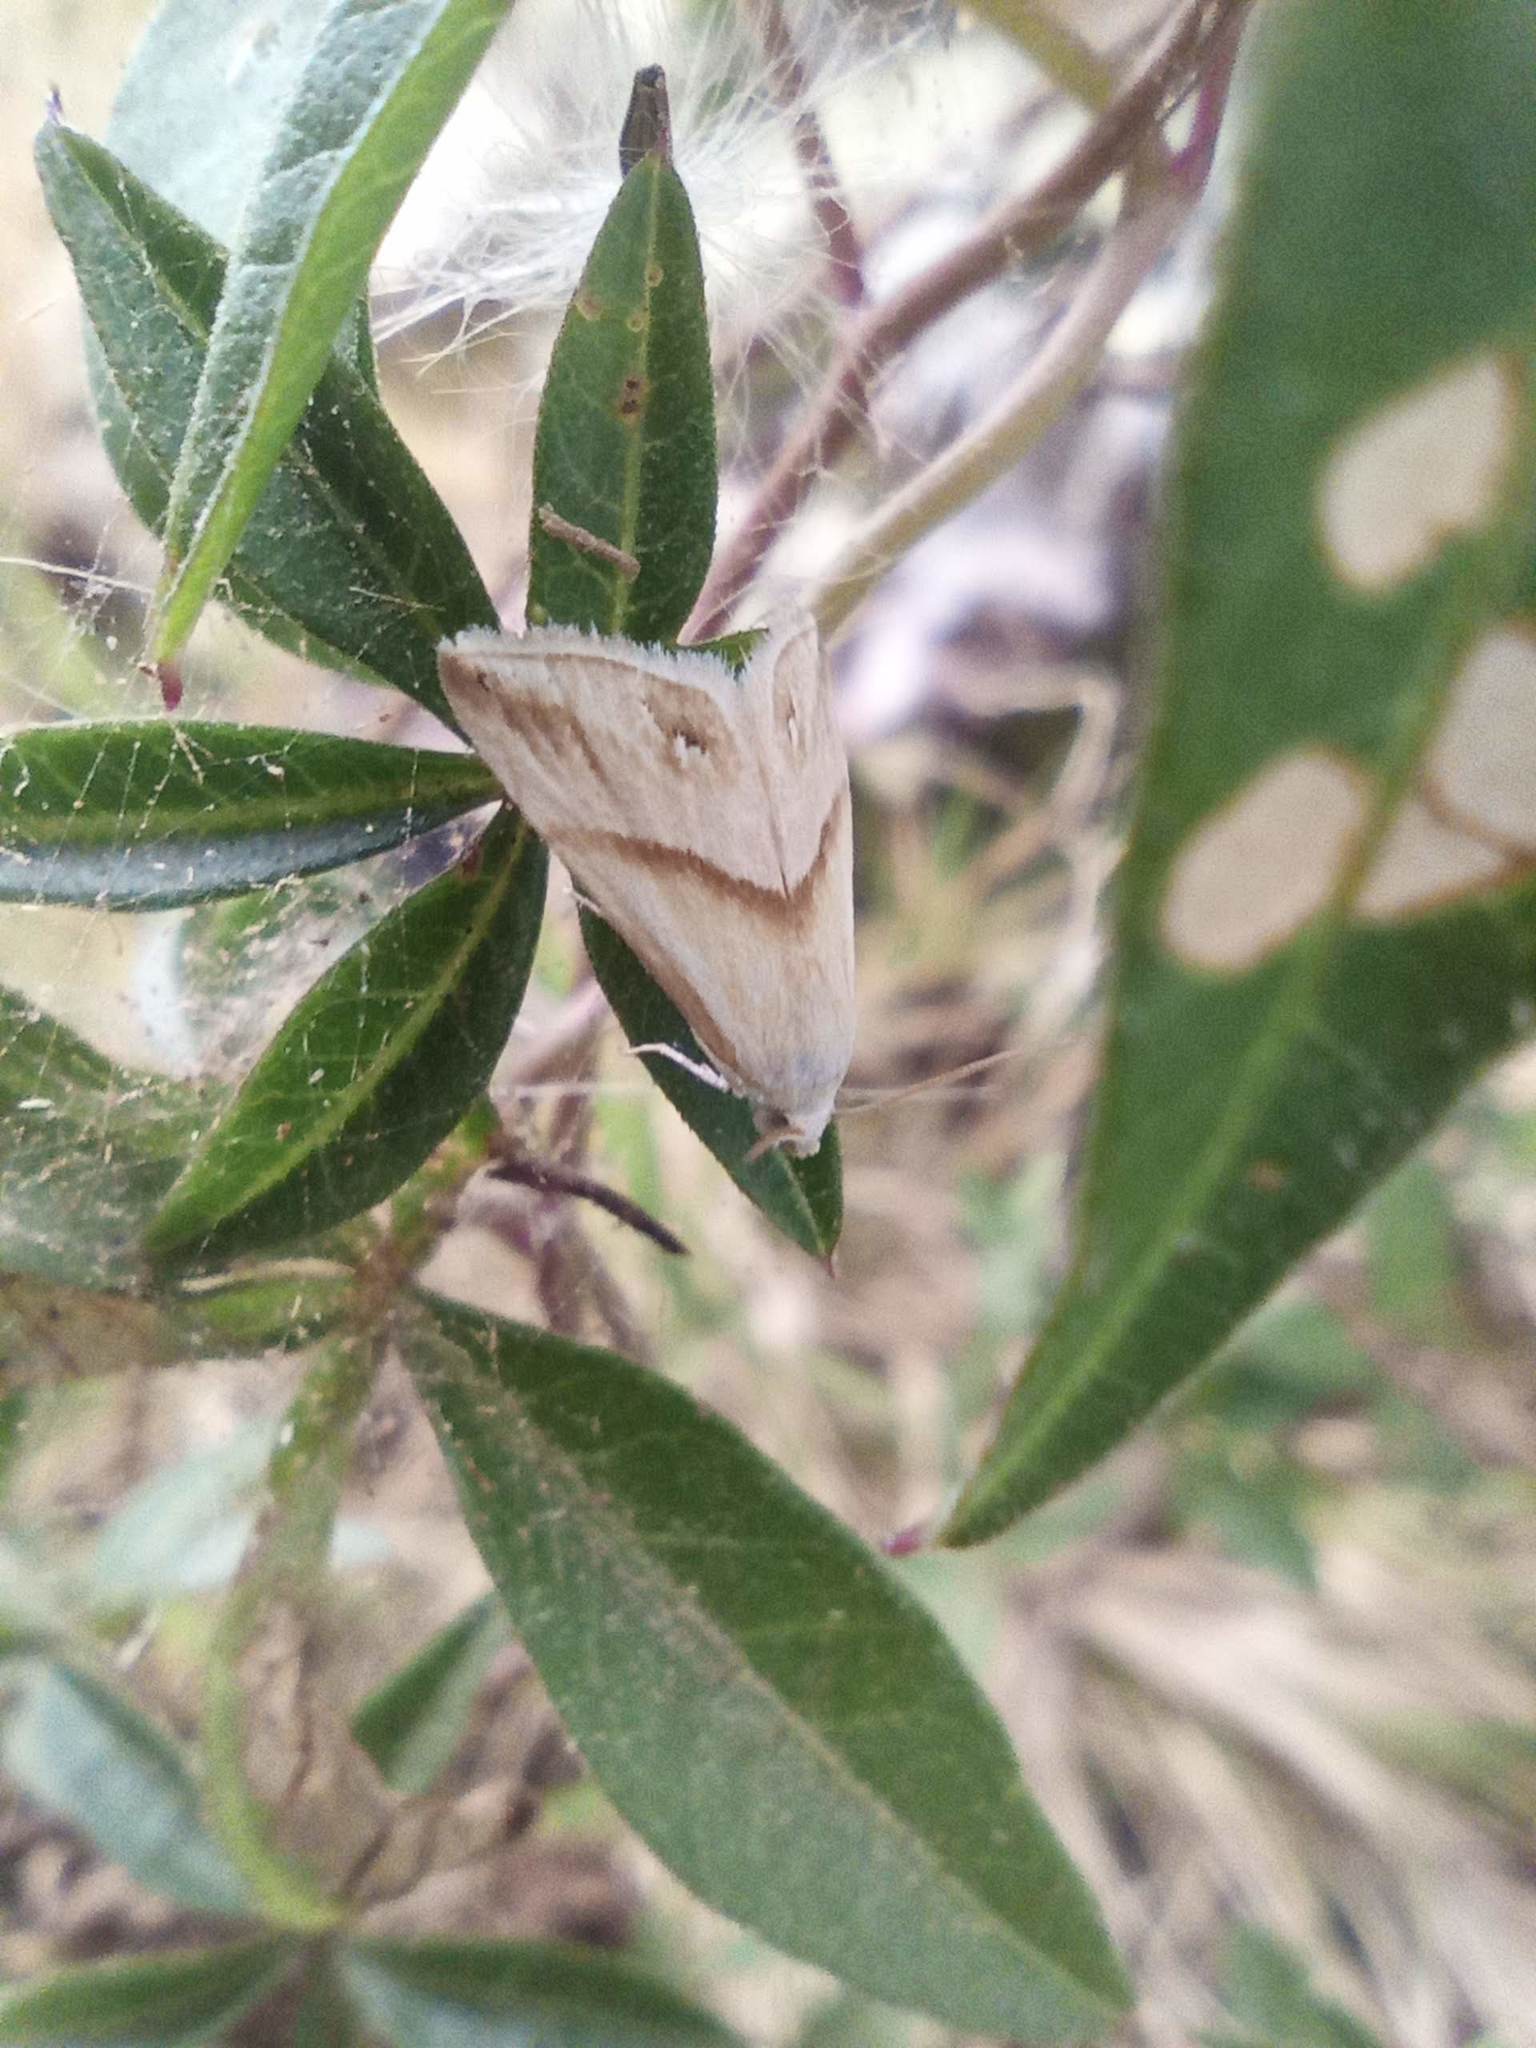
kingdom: Animalia
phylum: Arthropoda
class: Insecta
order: Lepidoptera
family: Noctuidae
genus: Eublemma
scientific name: Eublemma cochylioides
